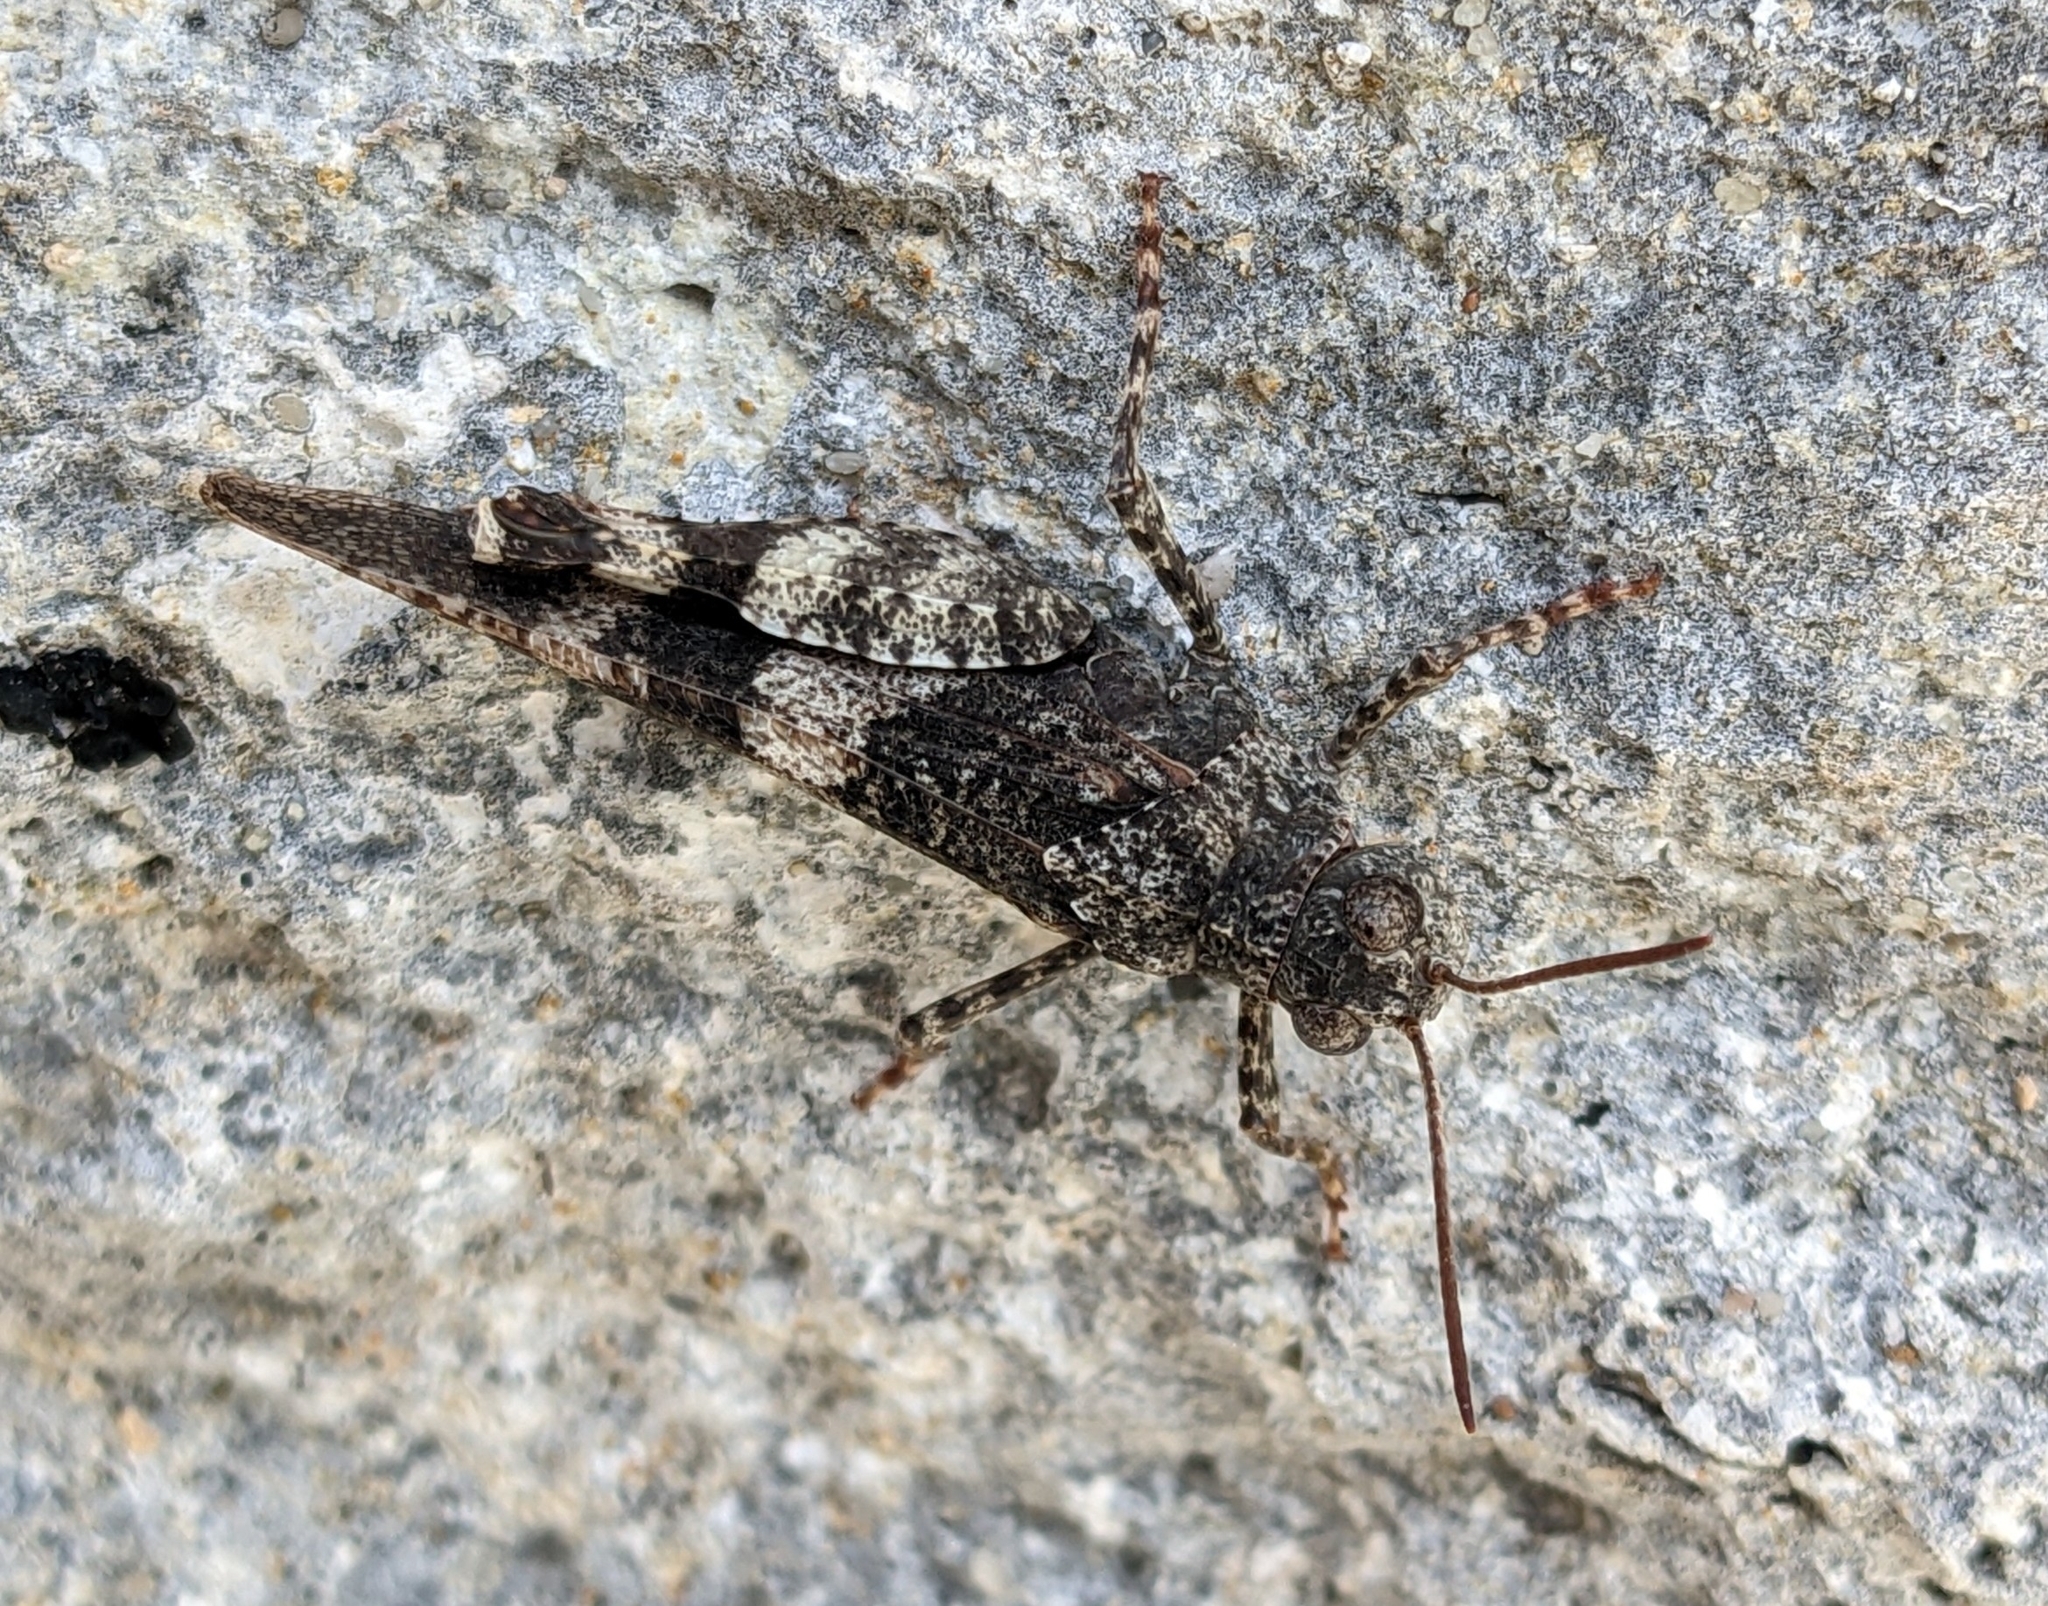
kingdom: Animalia
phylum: Arthropoda
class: Insecta
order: Orthoptera
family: Acrididae
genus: Oedipoda
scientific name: Oedipoda germanica
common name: Red band-winged grasshopper
